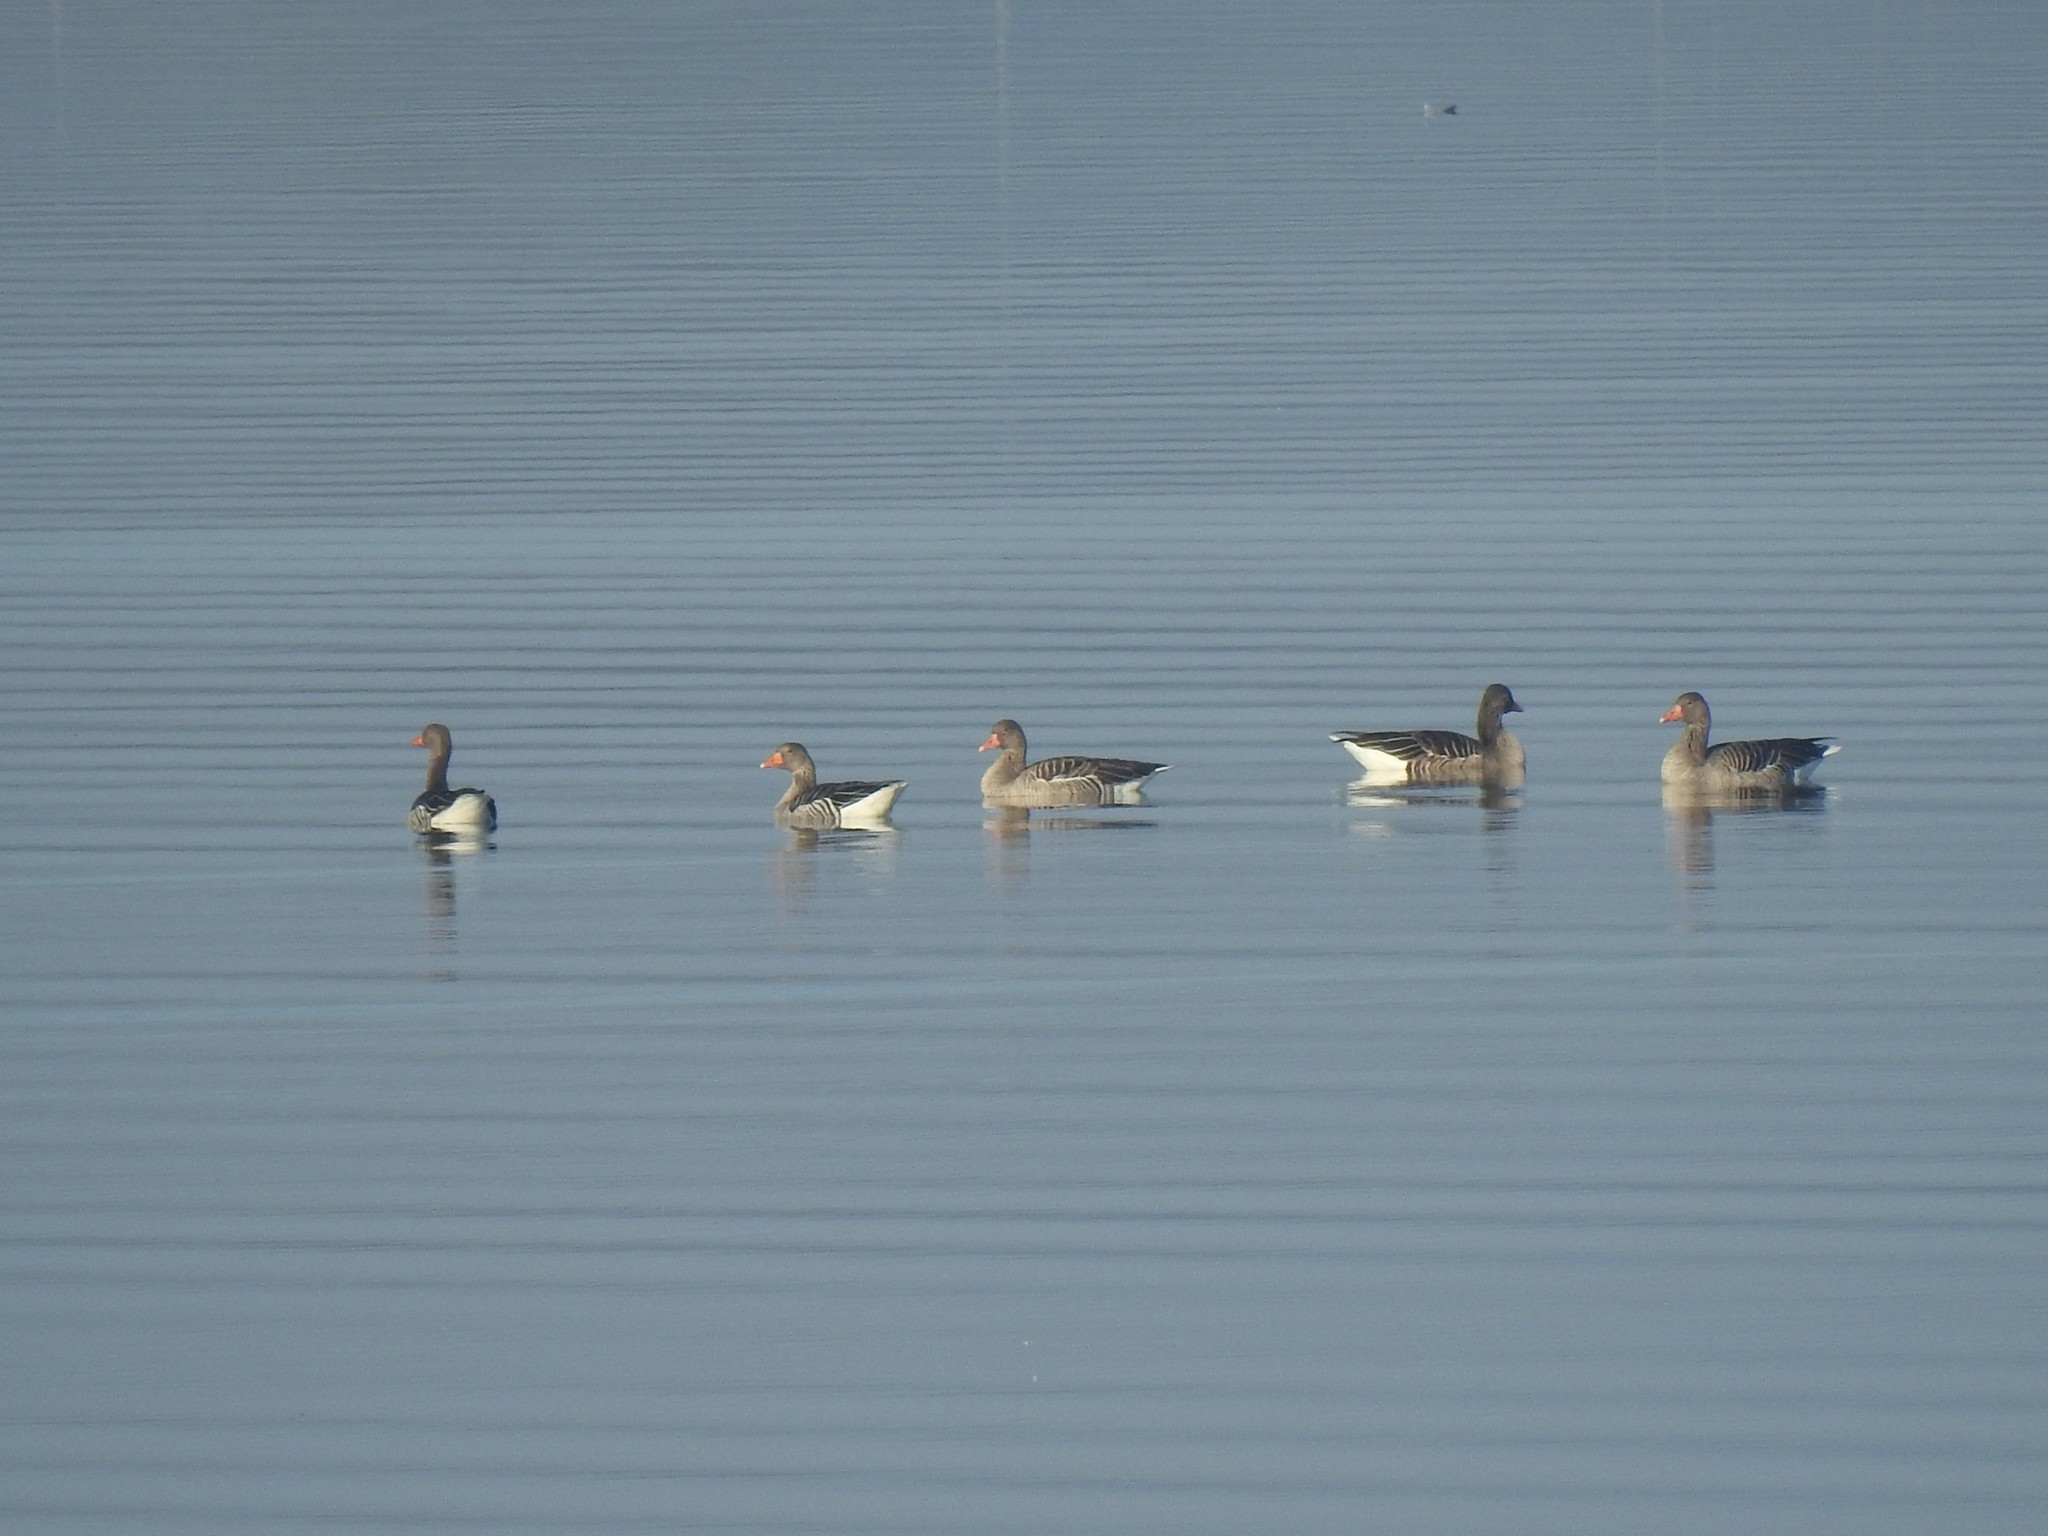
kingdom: Animalia
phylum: Chordata
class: Aves
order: Anseriformes
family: Anatidae
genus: Anser
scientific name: Anser anser
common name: Greylag goose
